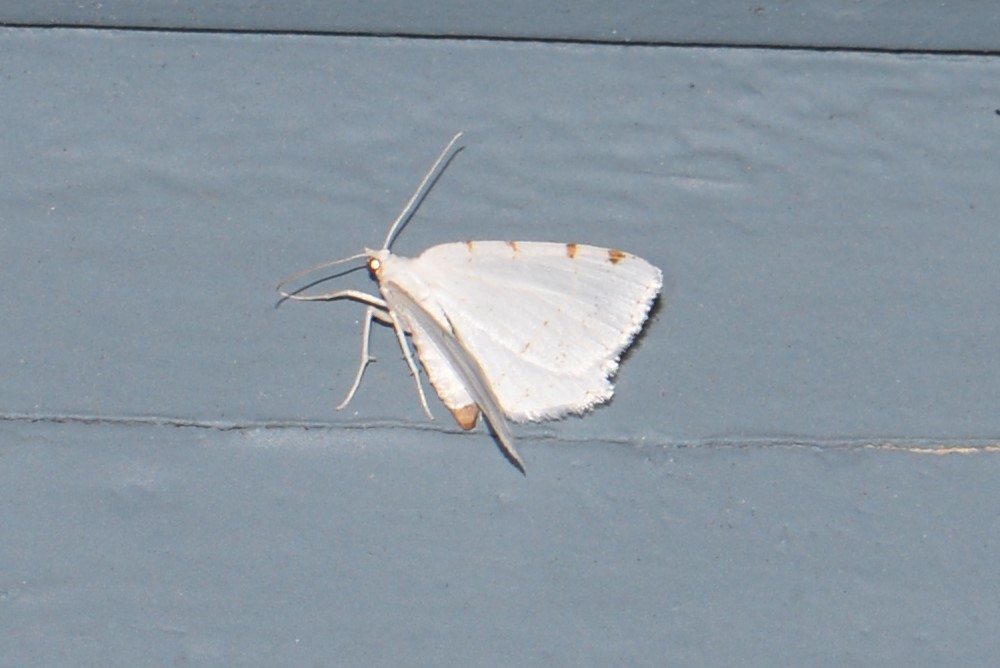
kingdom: Animalia
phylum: Arthropoda
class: Insecta
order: Lepidoptera
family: Geometridae
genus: Macaria
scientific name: Macaria pustularia
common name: Lesser maple spanworm moth
